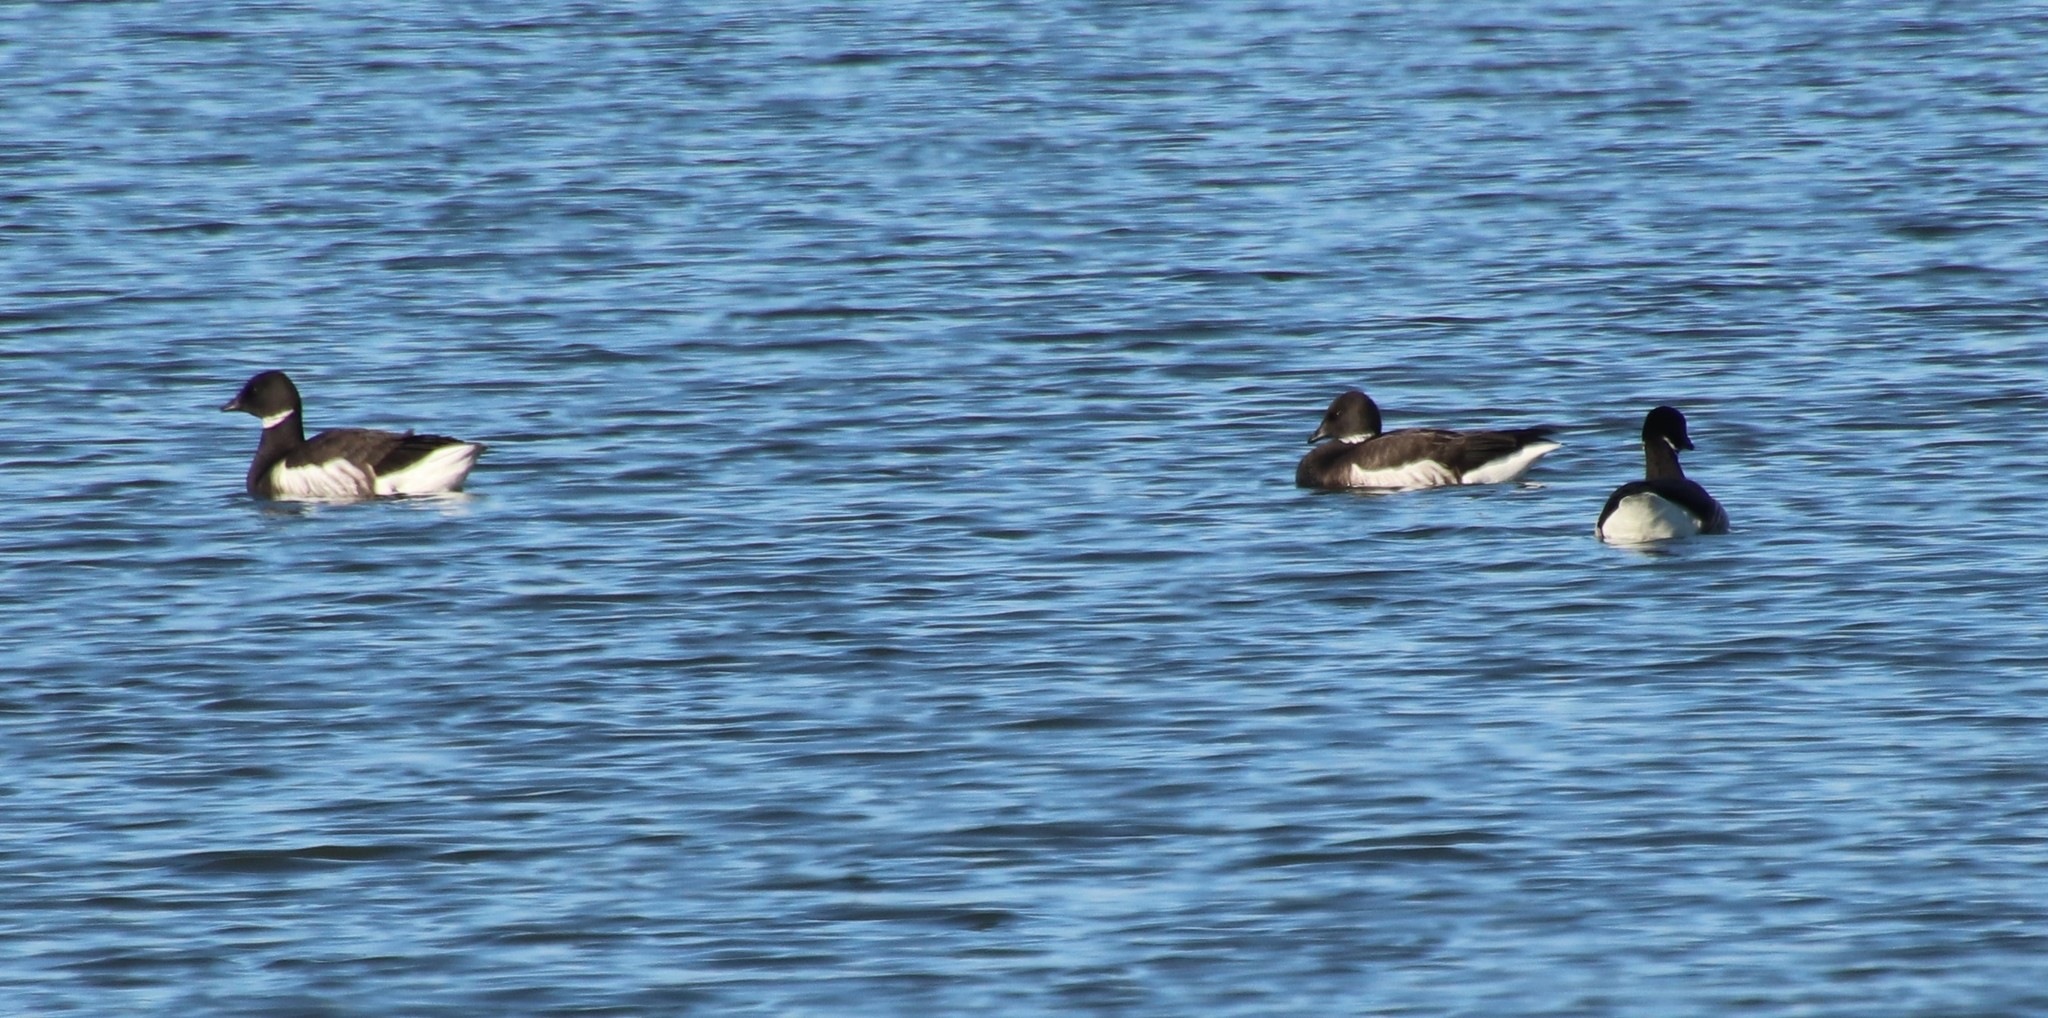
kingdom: Animalia
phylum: Chordata
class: Aves
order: Anseriformes
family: Anatidae
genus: Branta
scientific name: Branta bernicla
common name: Brant goose
